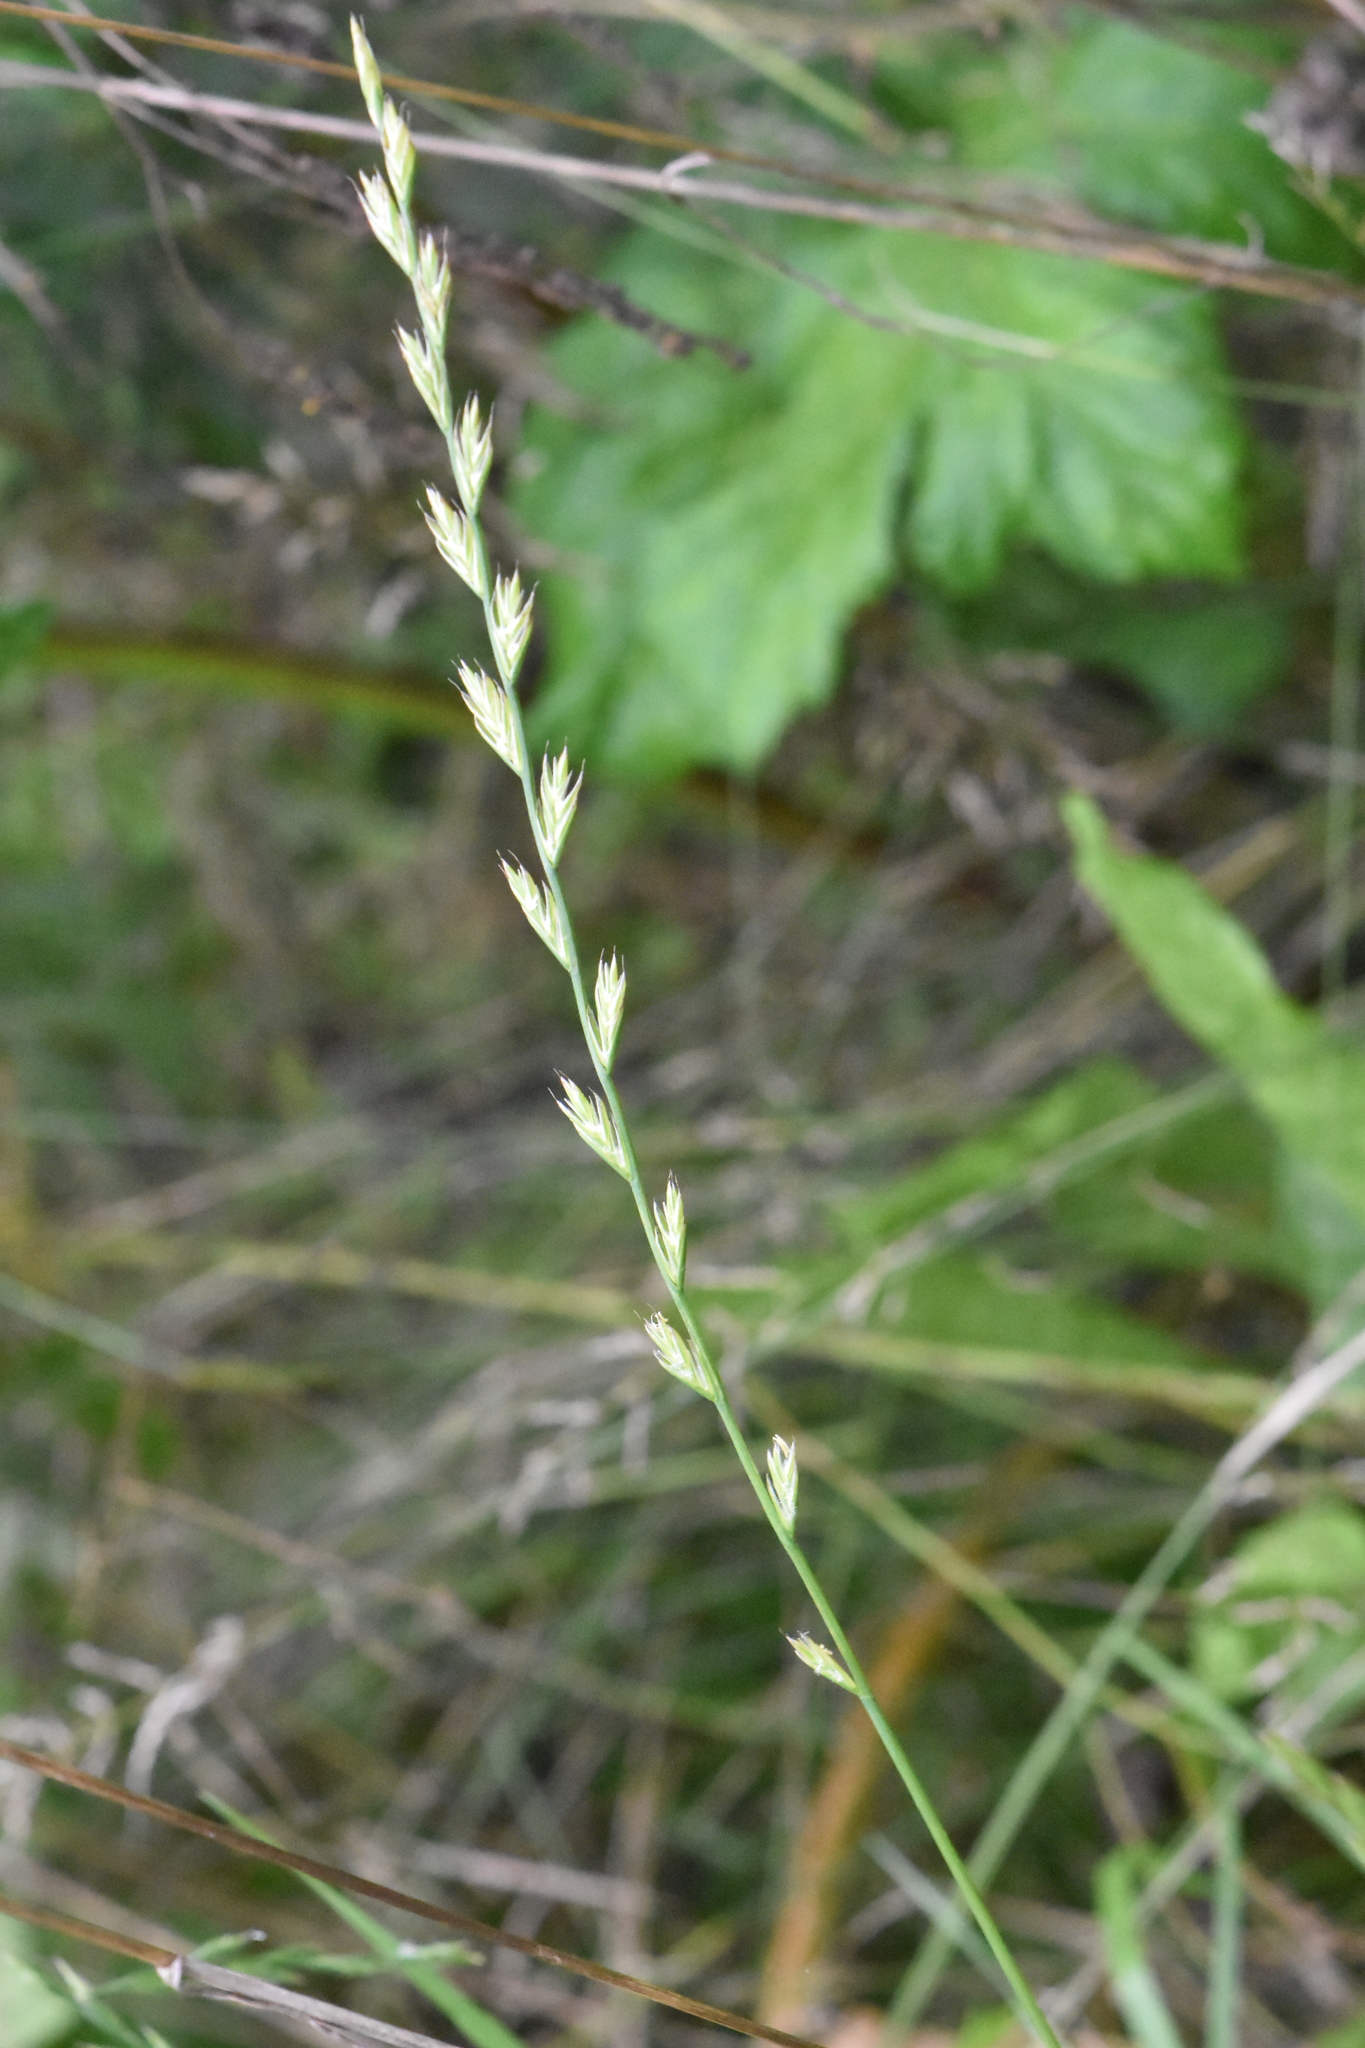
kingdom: Plantae
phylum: Tracheophyta
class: Liliopsida
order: Poales
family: Poaceae
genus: Lolium
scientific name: Lolium multiflorum
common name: Annual ryegrass
